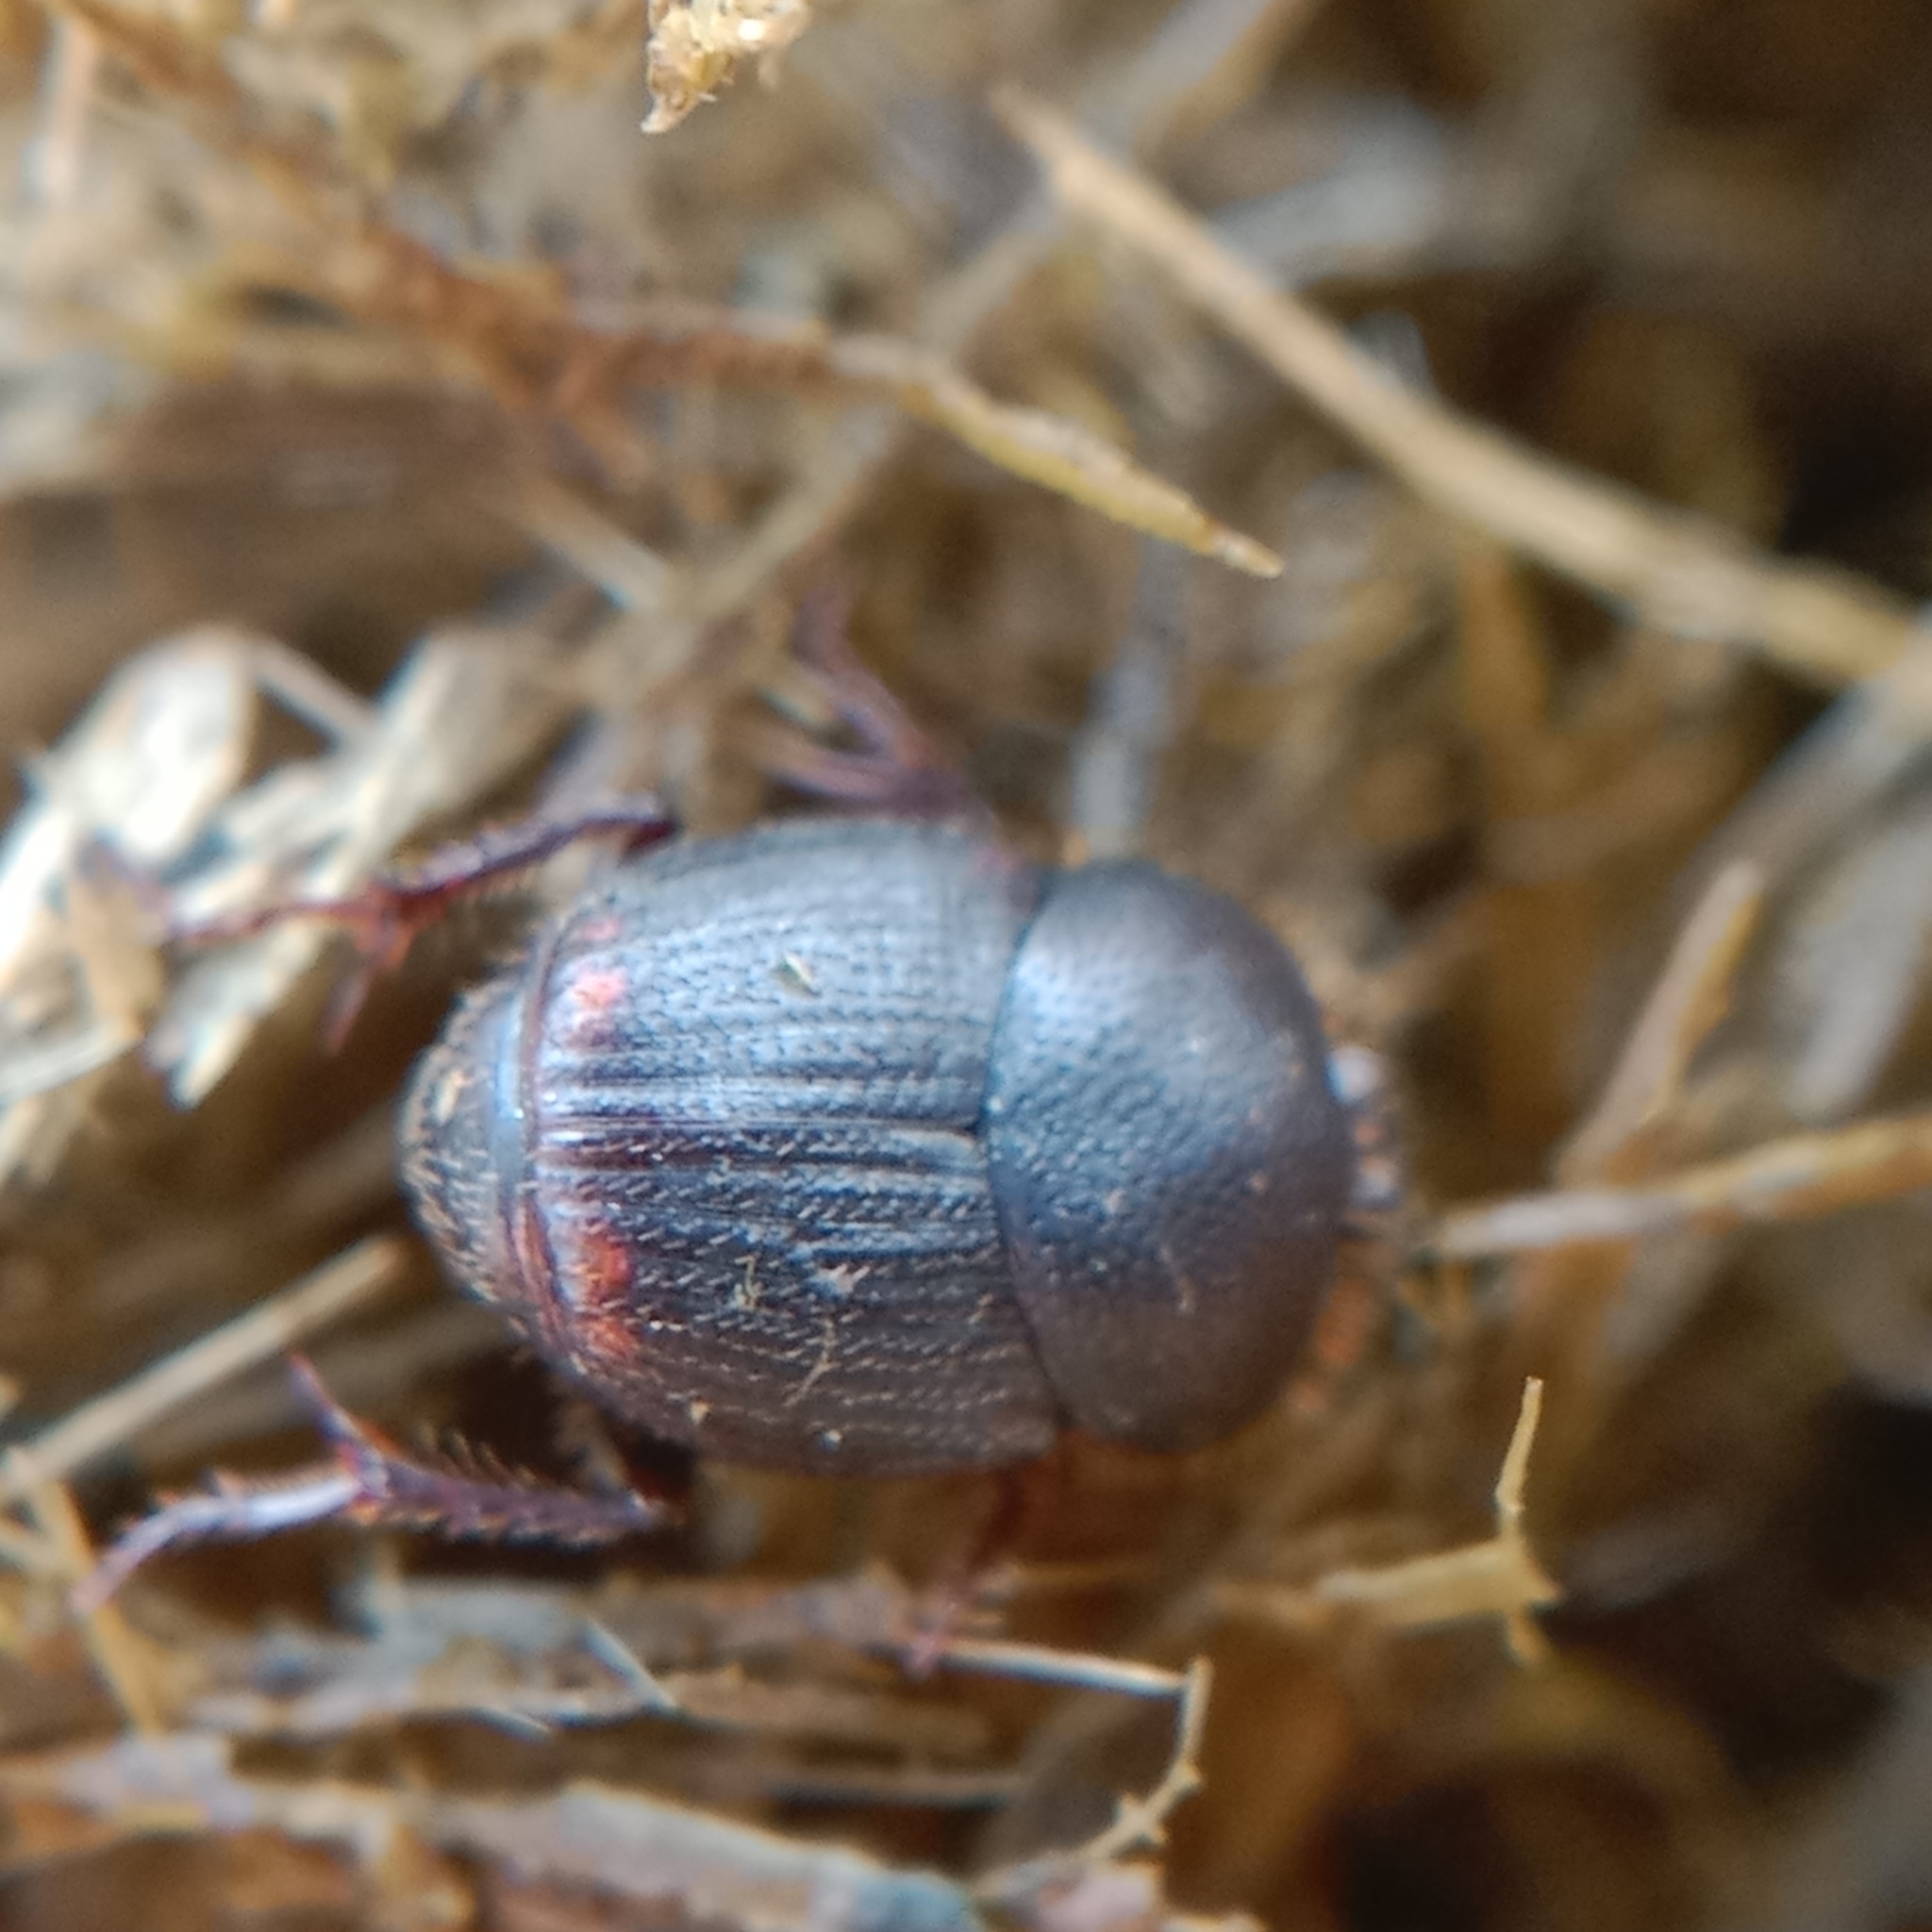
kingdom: Animalia
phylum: Arthropoda
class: Insecta
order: Coleoptera
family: Scarabaeidae
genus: Onthophagus
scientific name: Onthophagus furcatus
